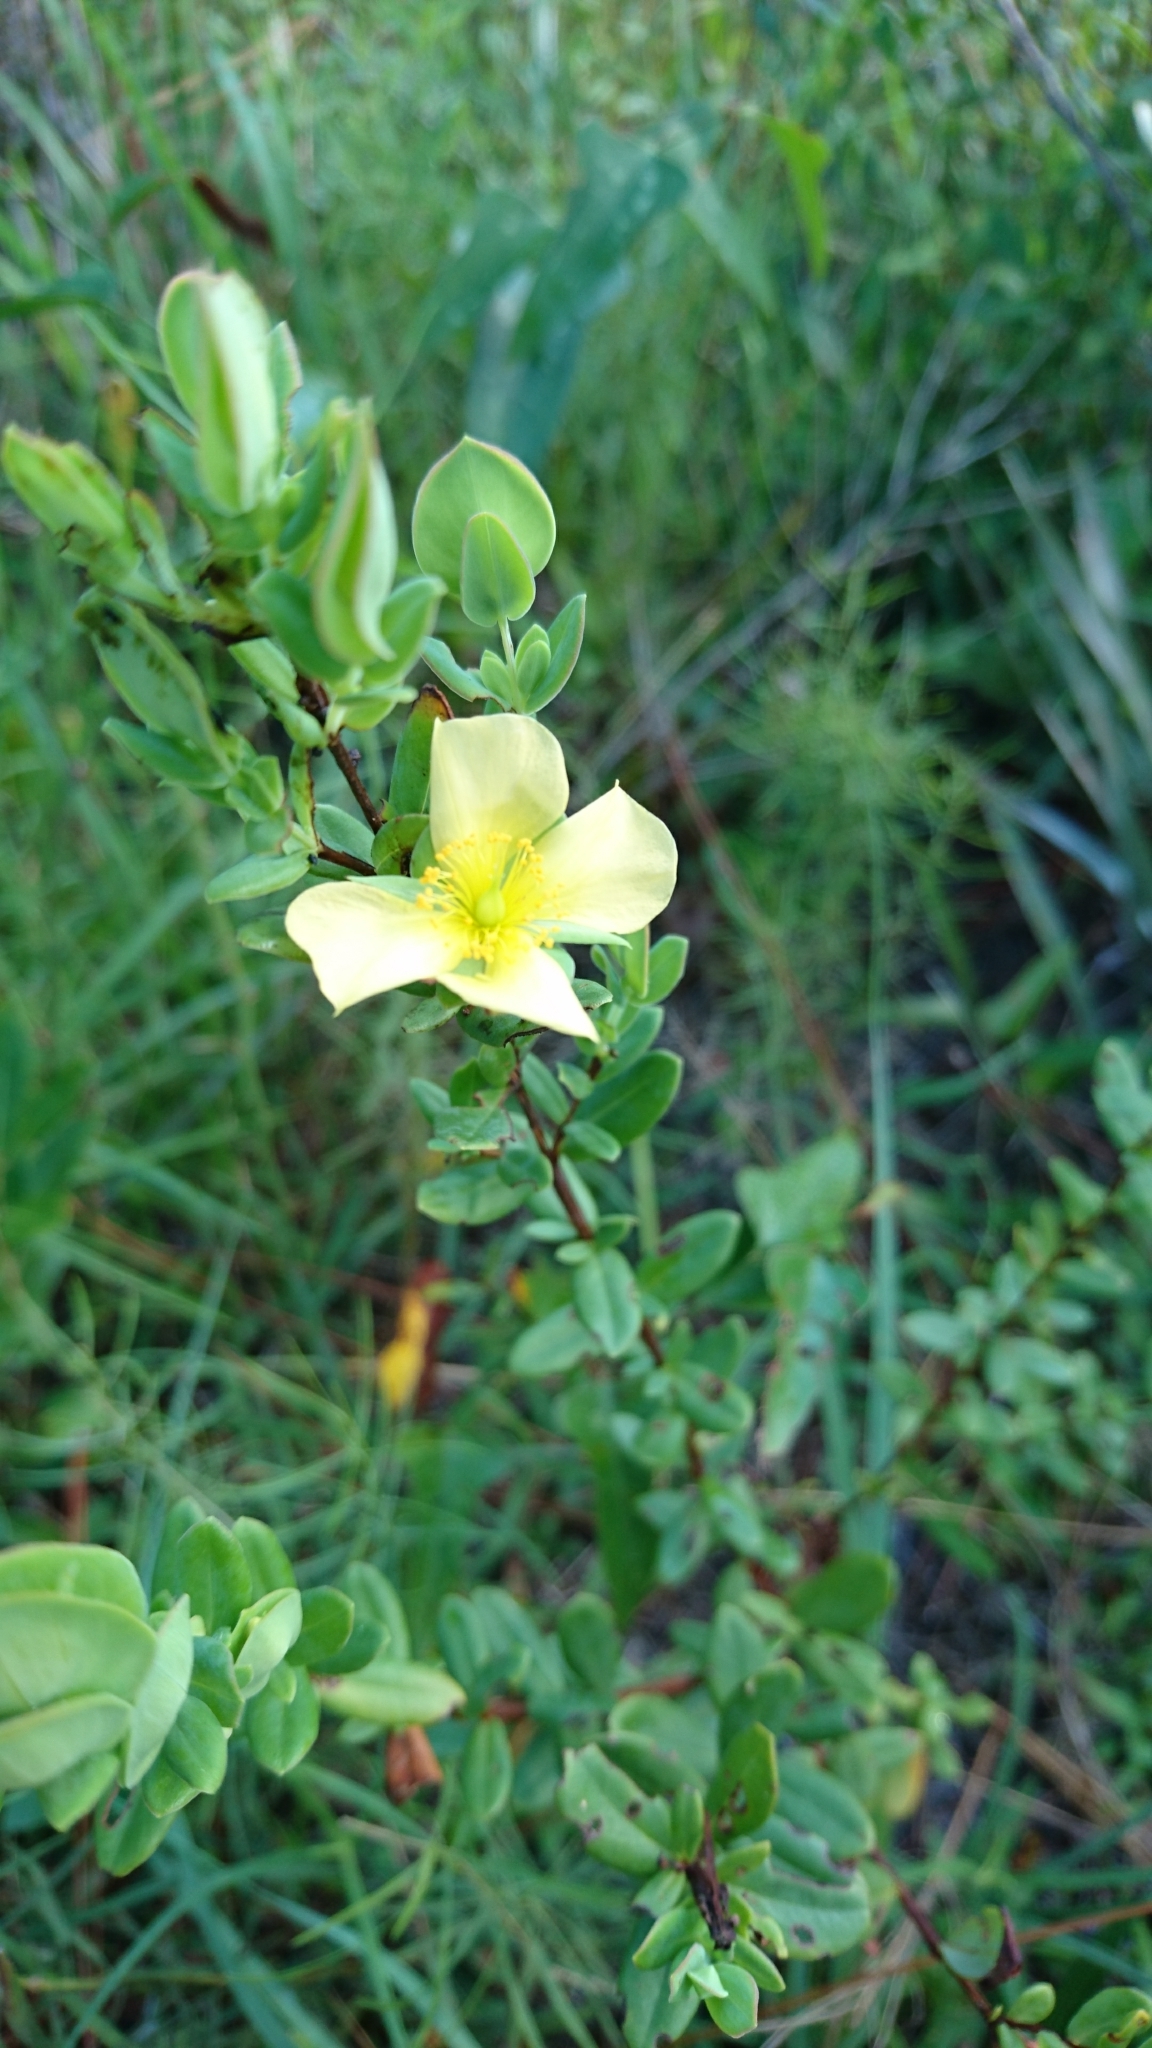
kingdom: Plantae
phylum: Tracheophyta
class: Magnoliopsida
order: Malpighiales
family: Hypericaceae
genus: Hypericum
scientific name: Hypericum crux-andreae
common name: St.-peter's-wort
